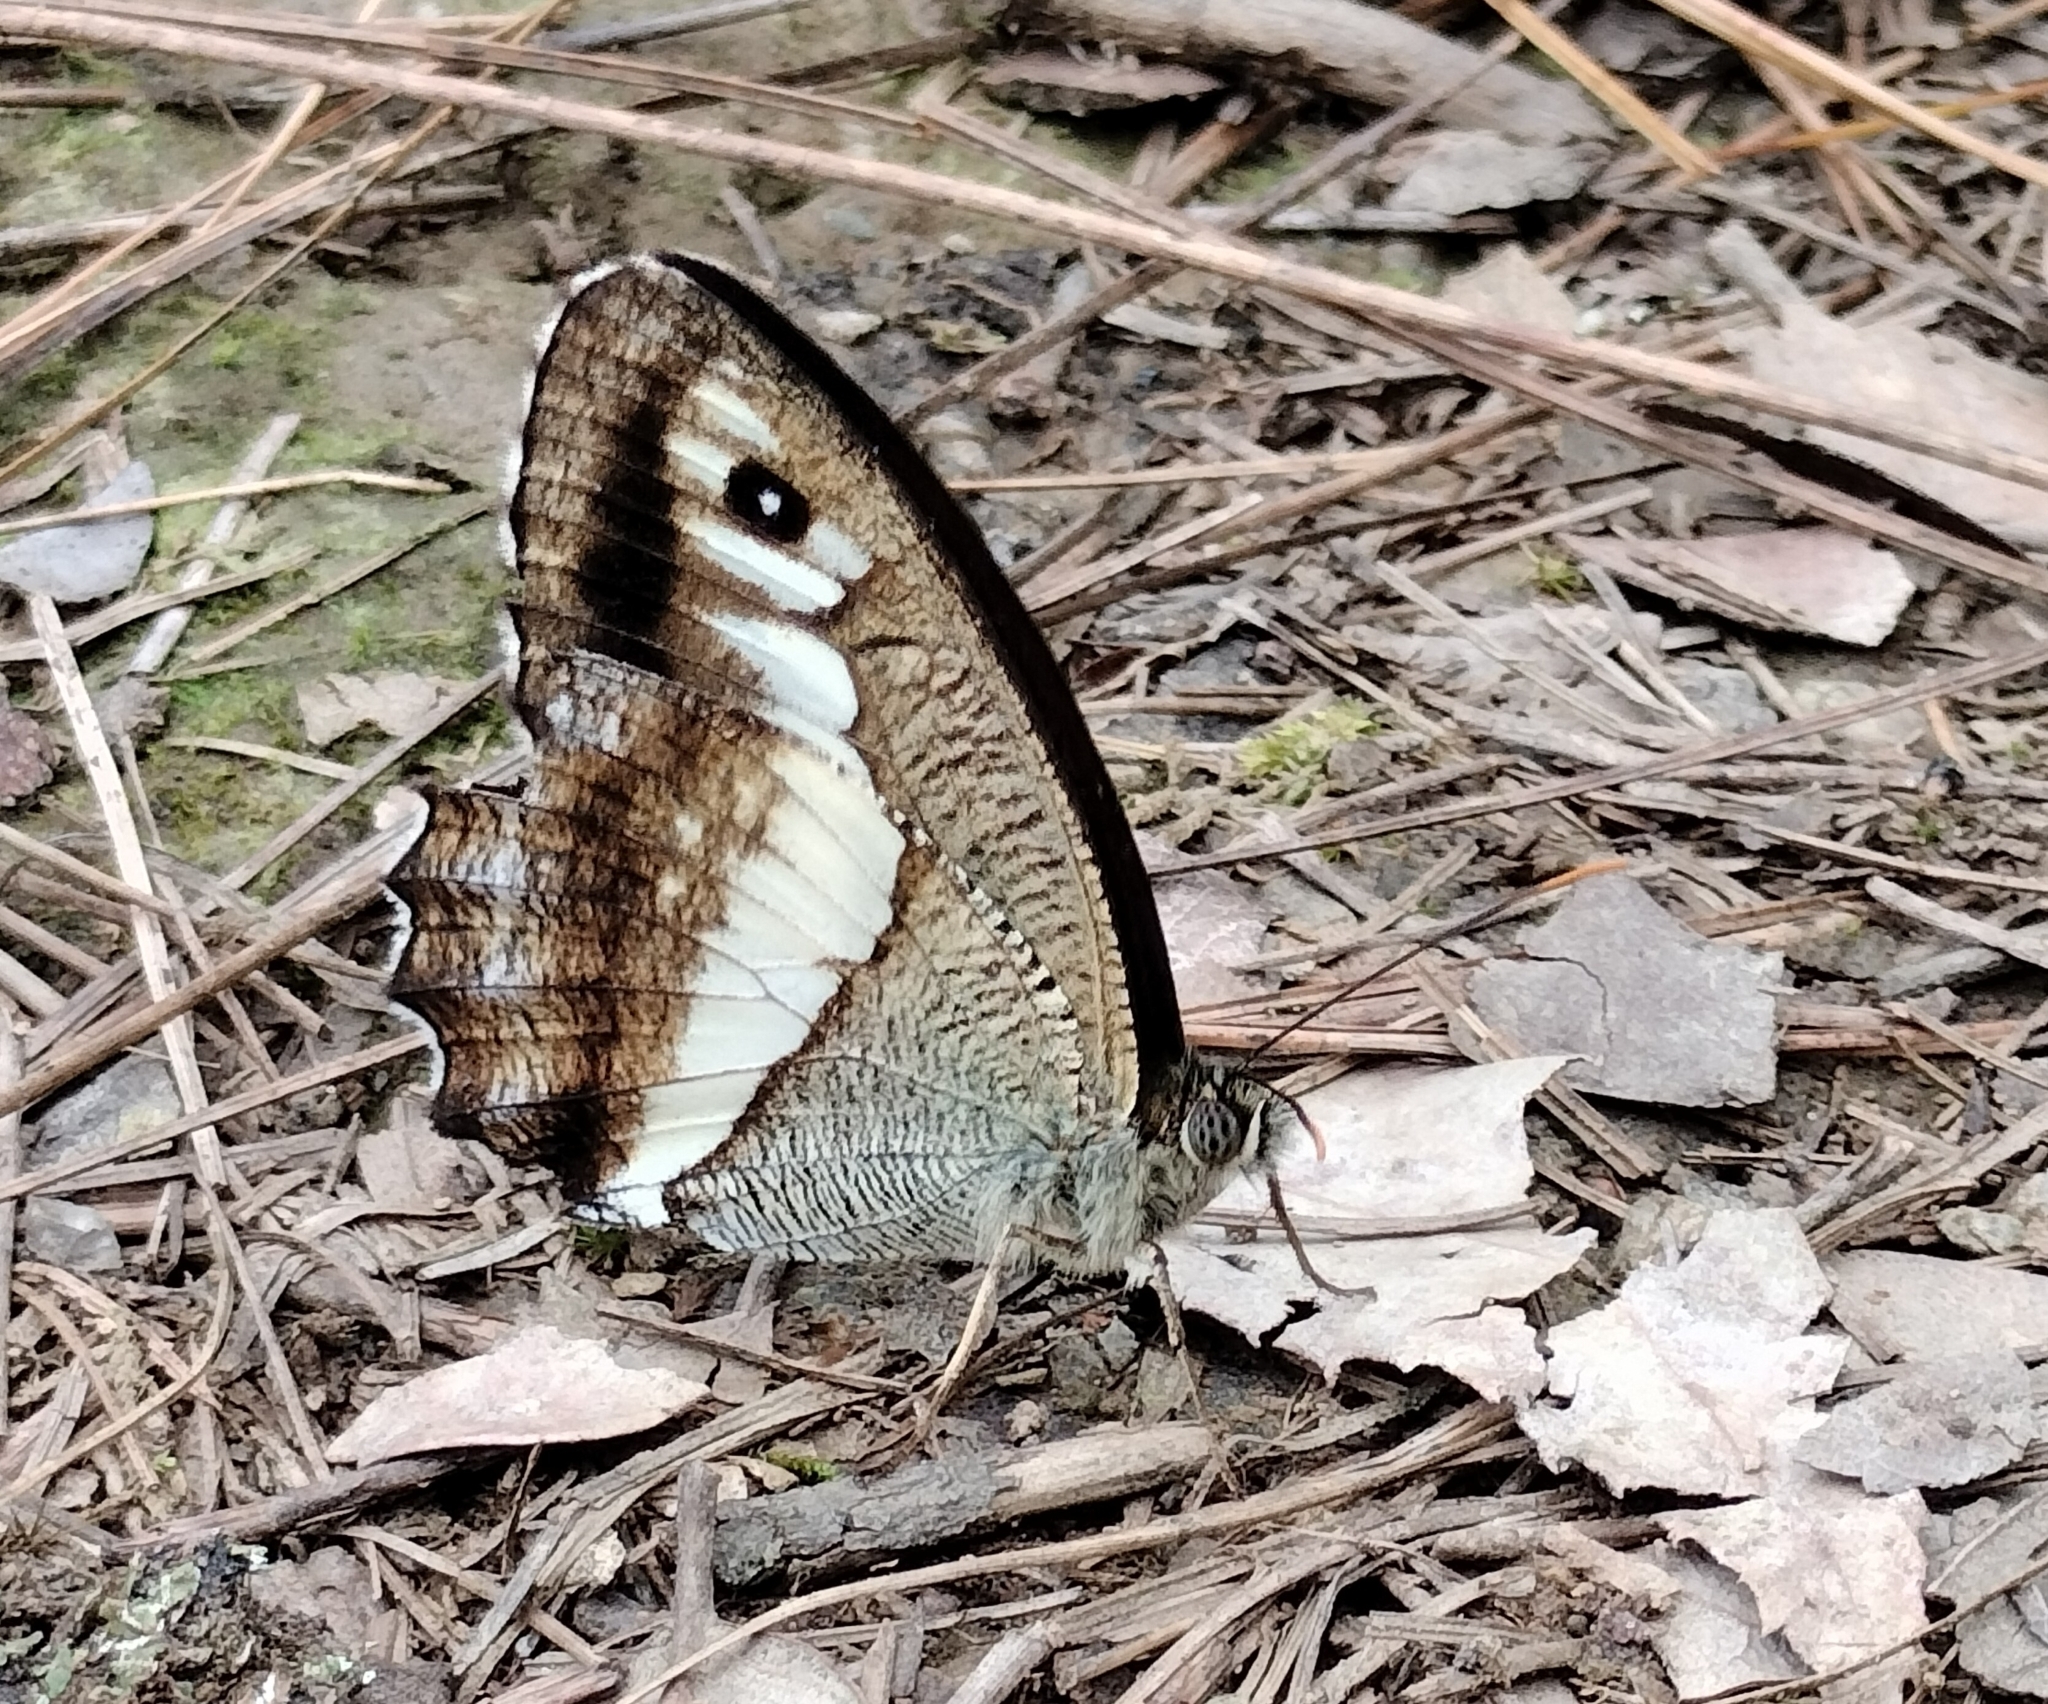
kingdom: Animalia
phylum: Arthropoda
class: Insecta
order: Lepidoptera
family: Nymphalidae
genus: Satyrus
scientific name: Satyrus
